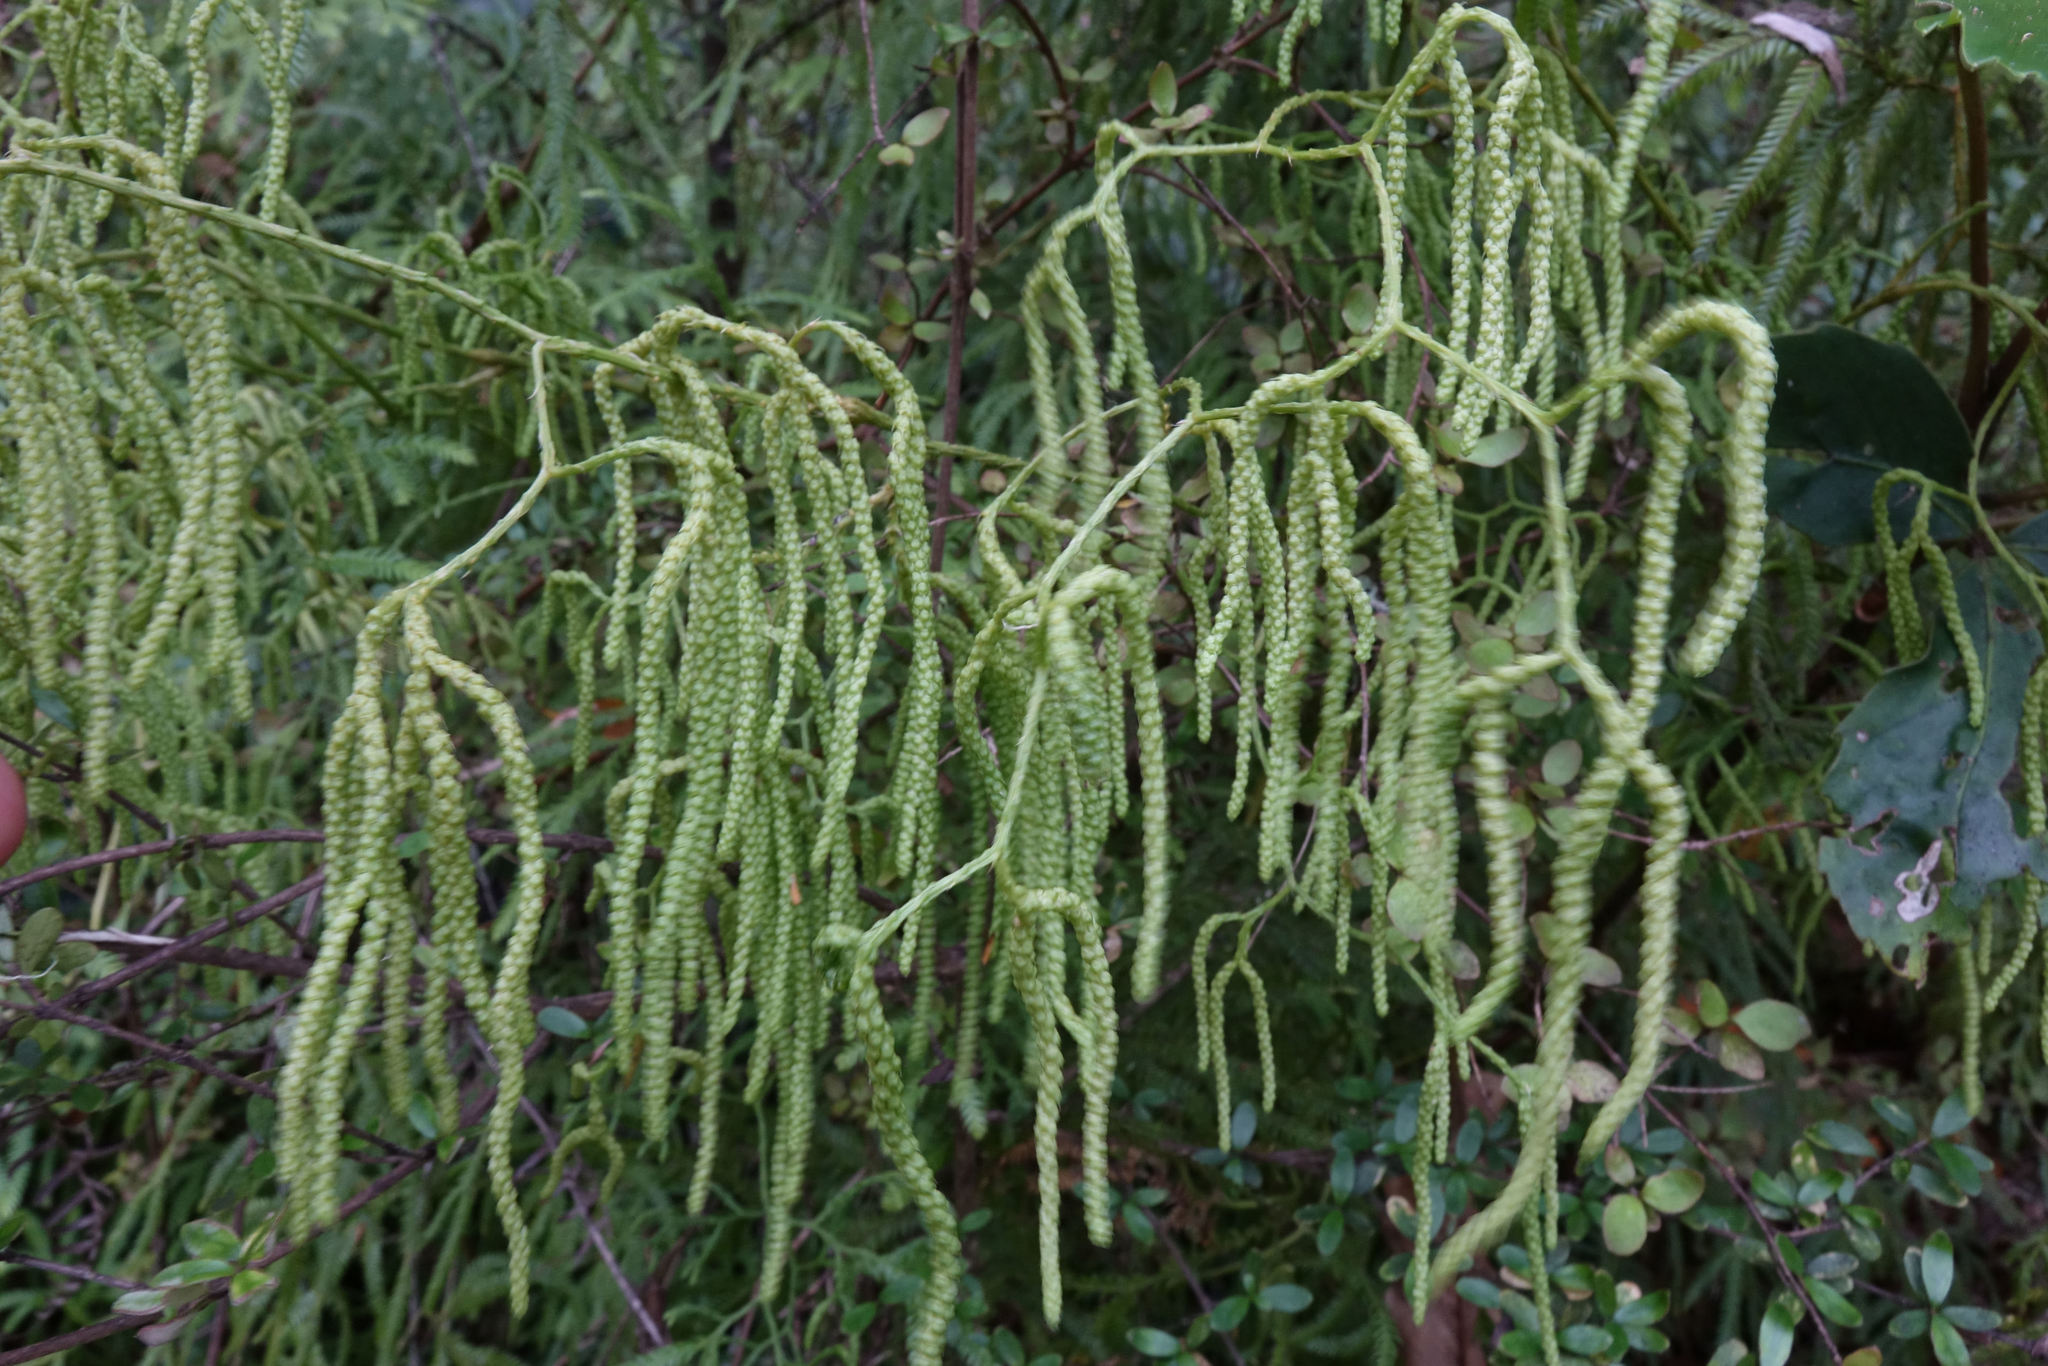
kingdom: Plantae
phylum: Tracheophyta
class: Lycopodiopsida
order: Lycopodiales
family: Lycopodiaceae
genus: Lycopodium
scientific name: Lycopodium volubile
